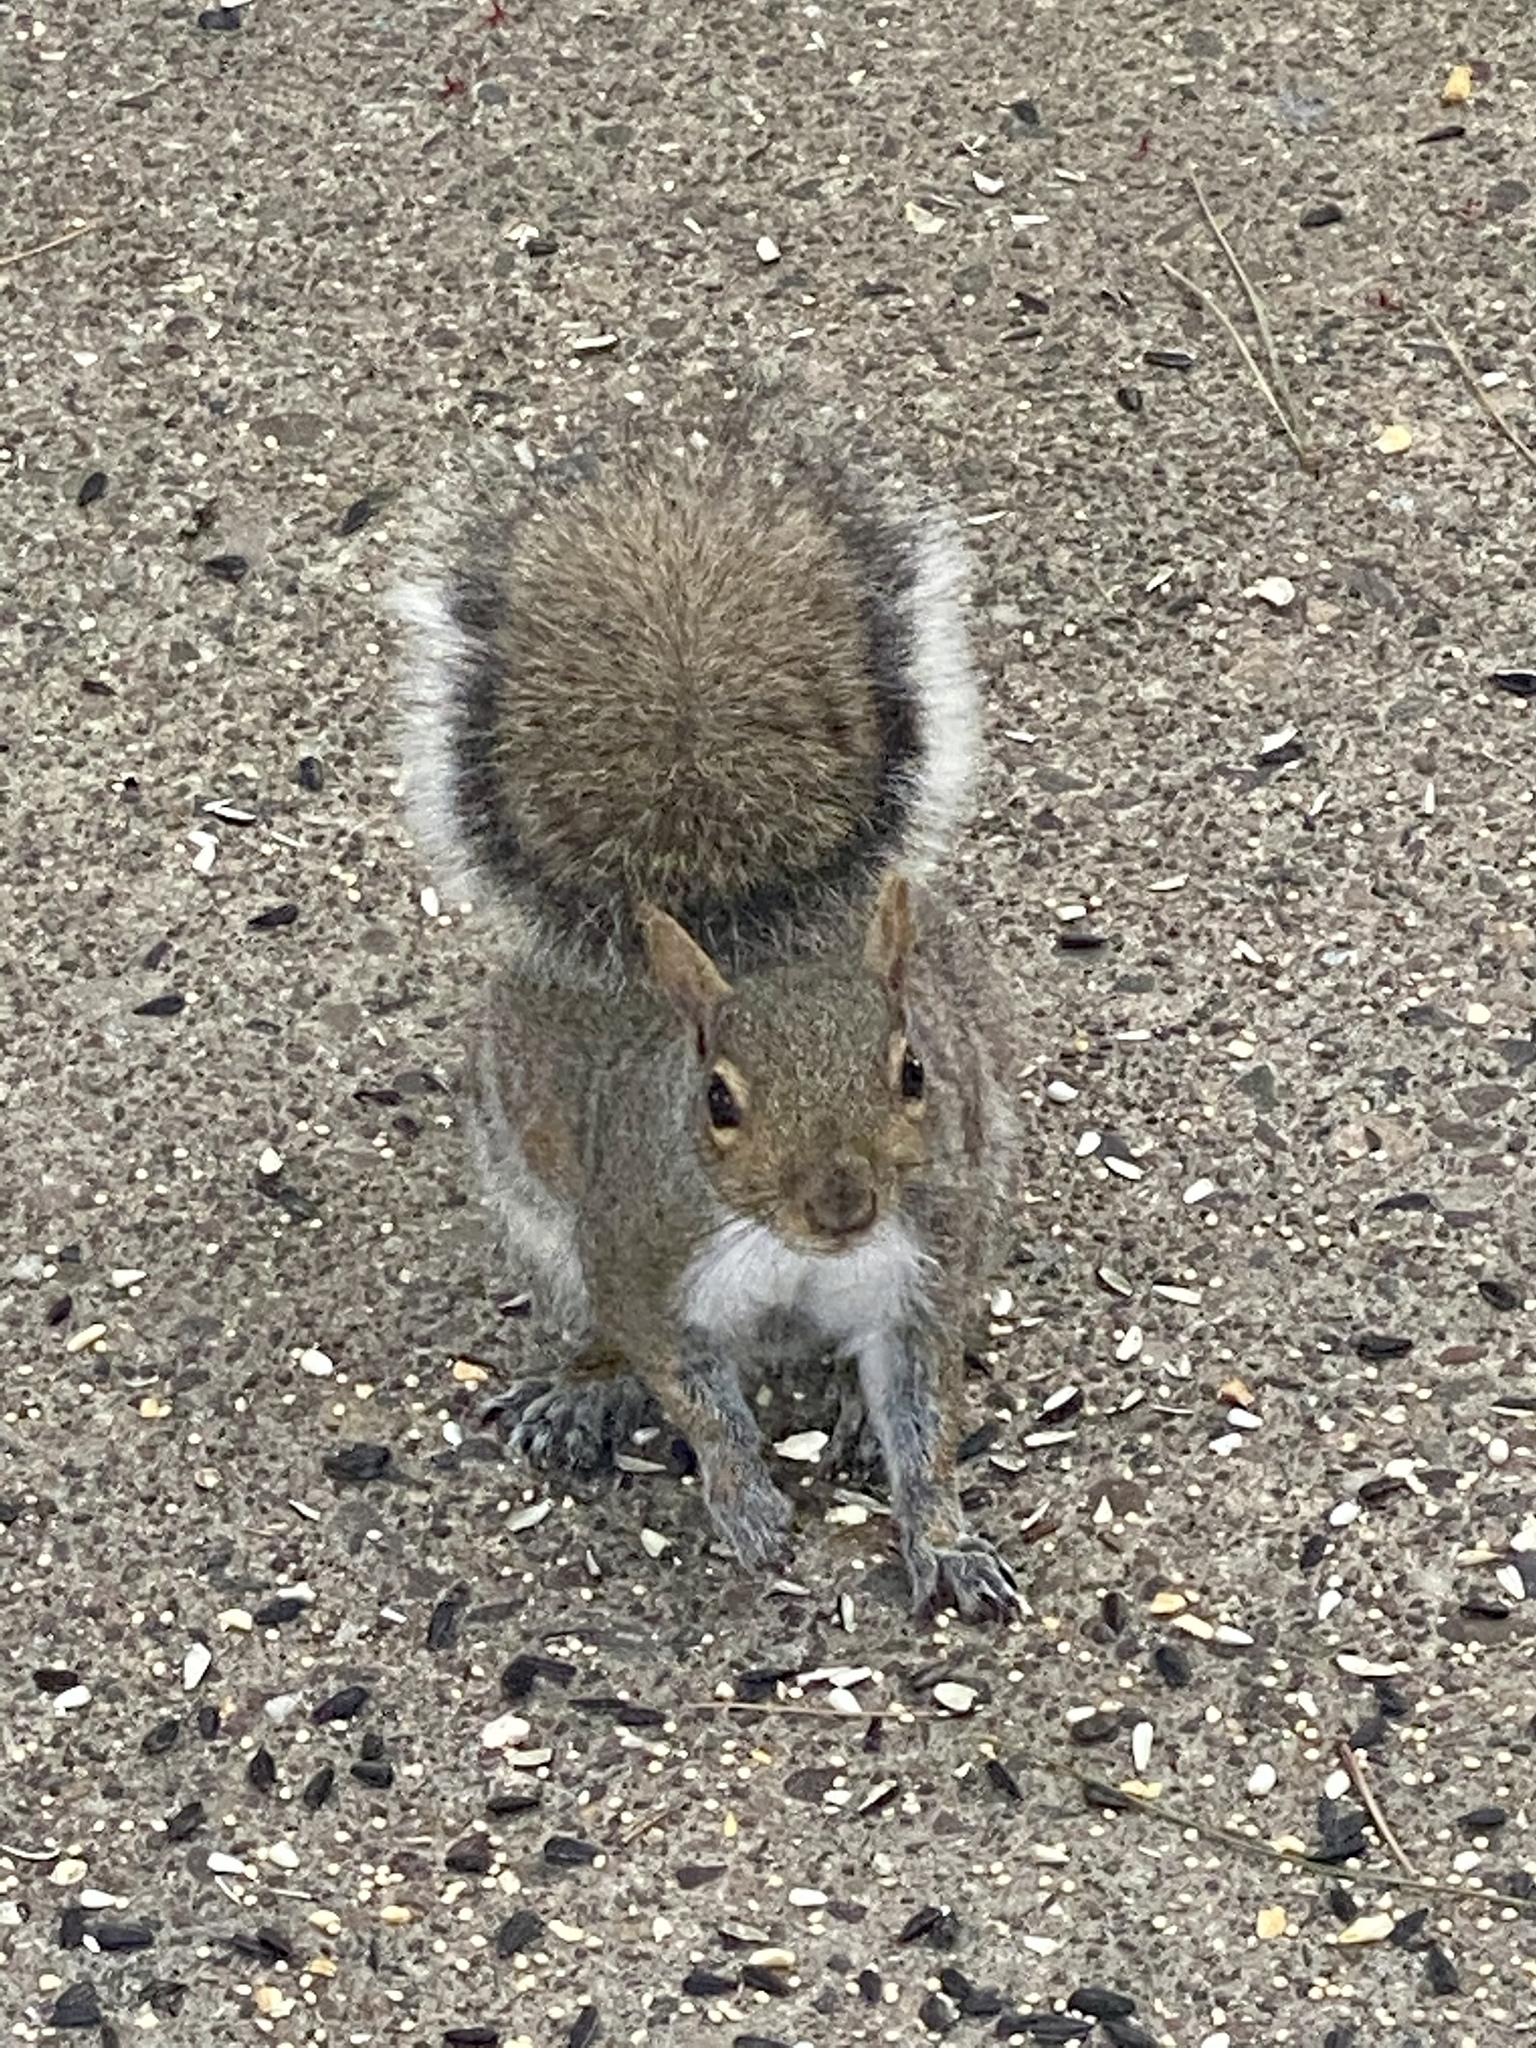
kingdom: Animalia
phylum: Chordata
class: Mammalia
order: Rodentia
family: Sciuridae
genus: Sciurus
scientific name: Sciurus carolinensis
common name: Eastern gray squirrel
